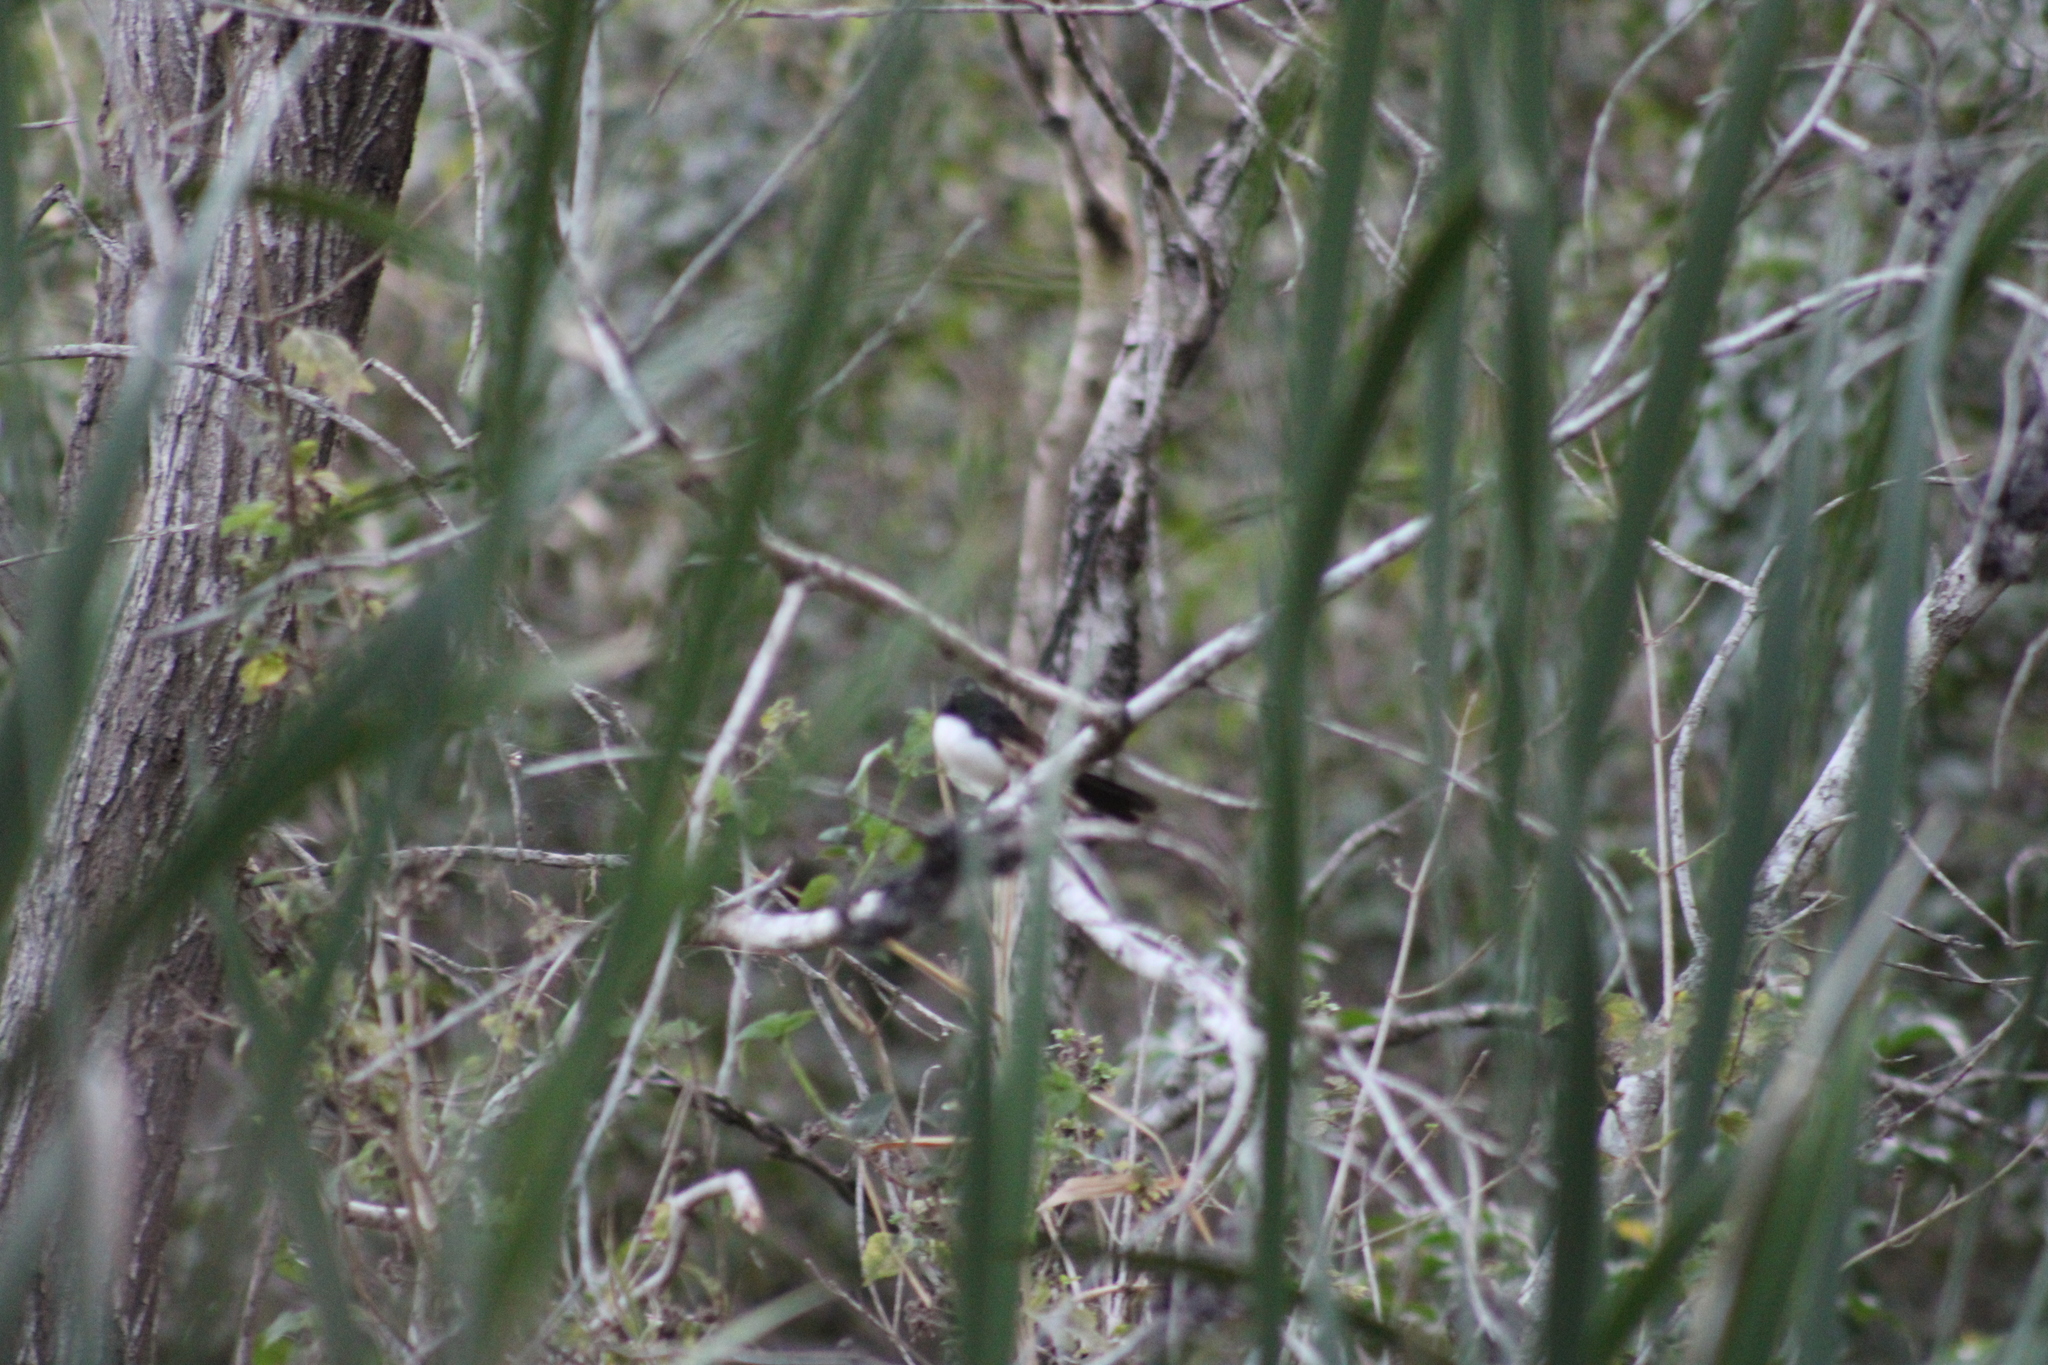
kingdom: Animalia
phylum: Chordata
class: Aves
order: Passeriformes
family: Rhipiduridae
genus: Rhipidura
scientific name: Rhipidura leucophrys
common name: Willie wagtail
